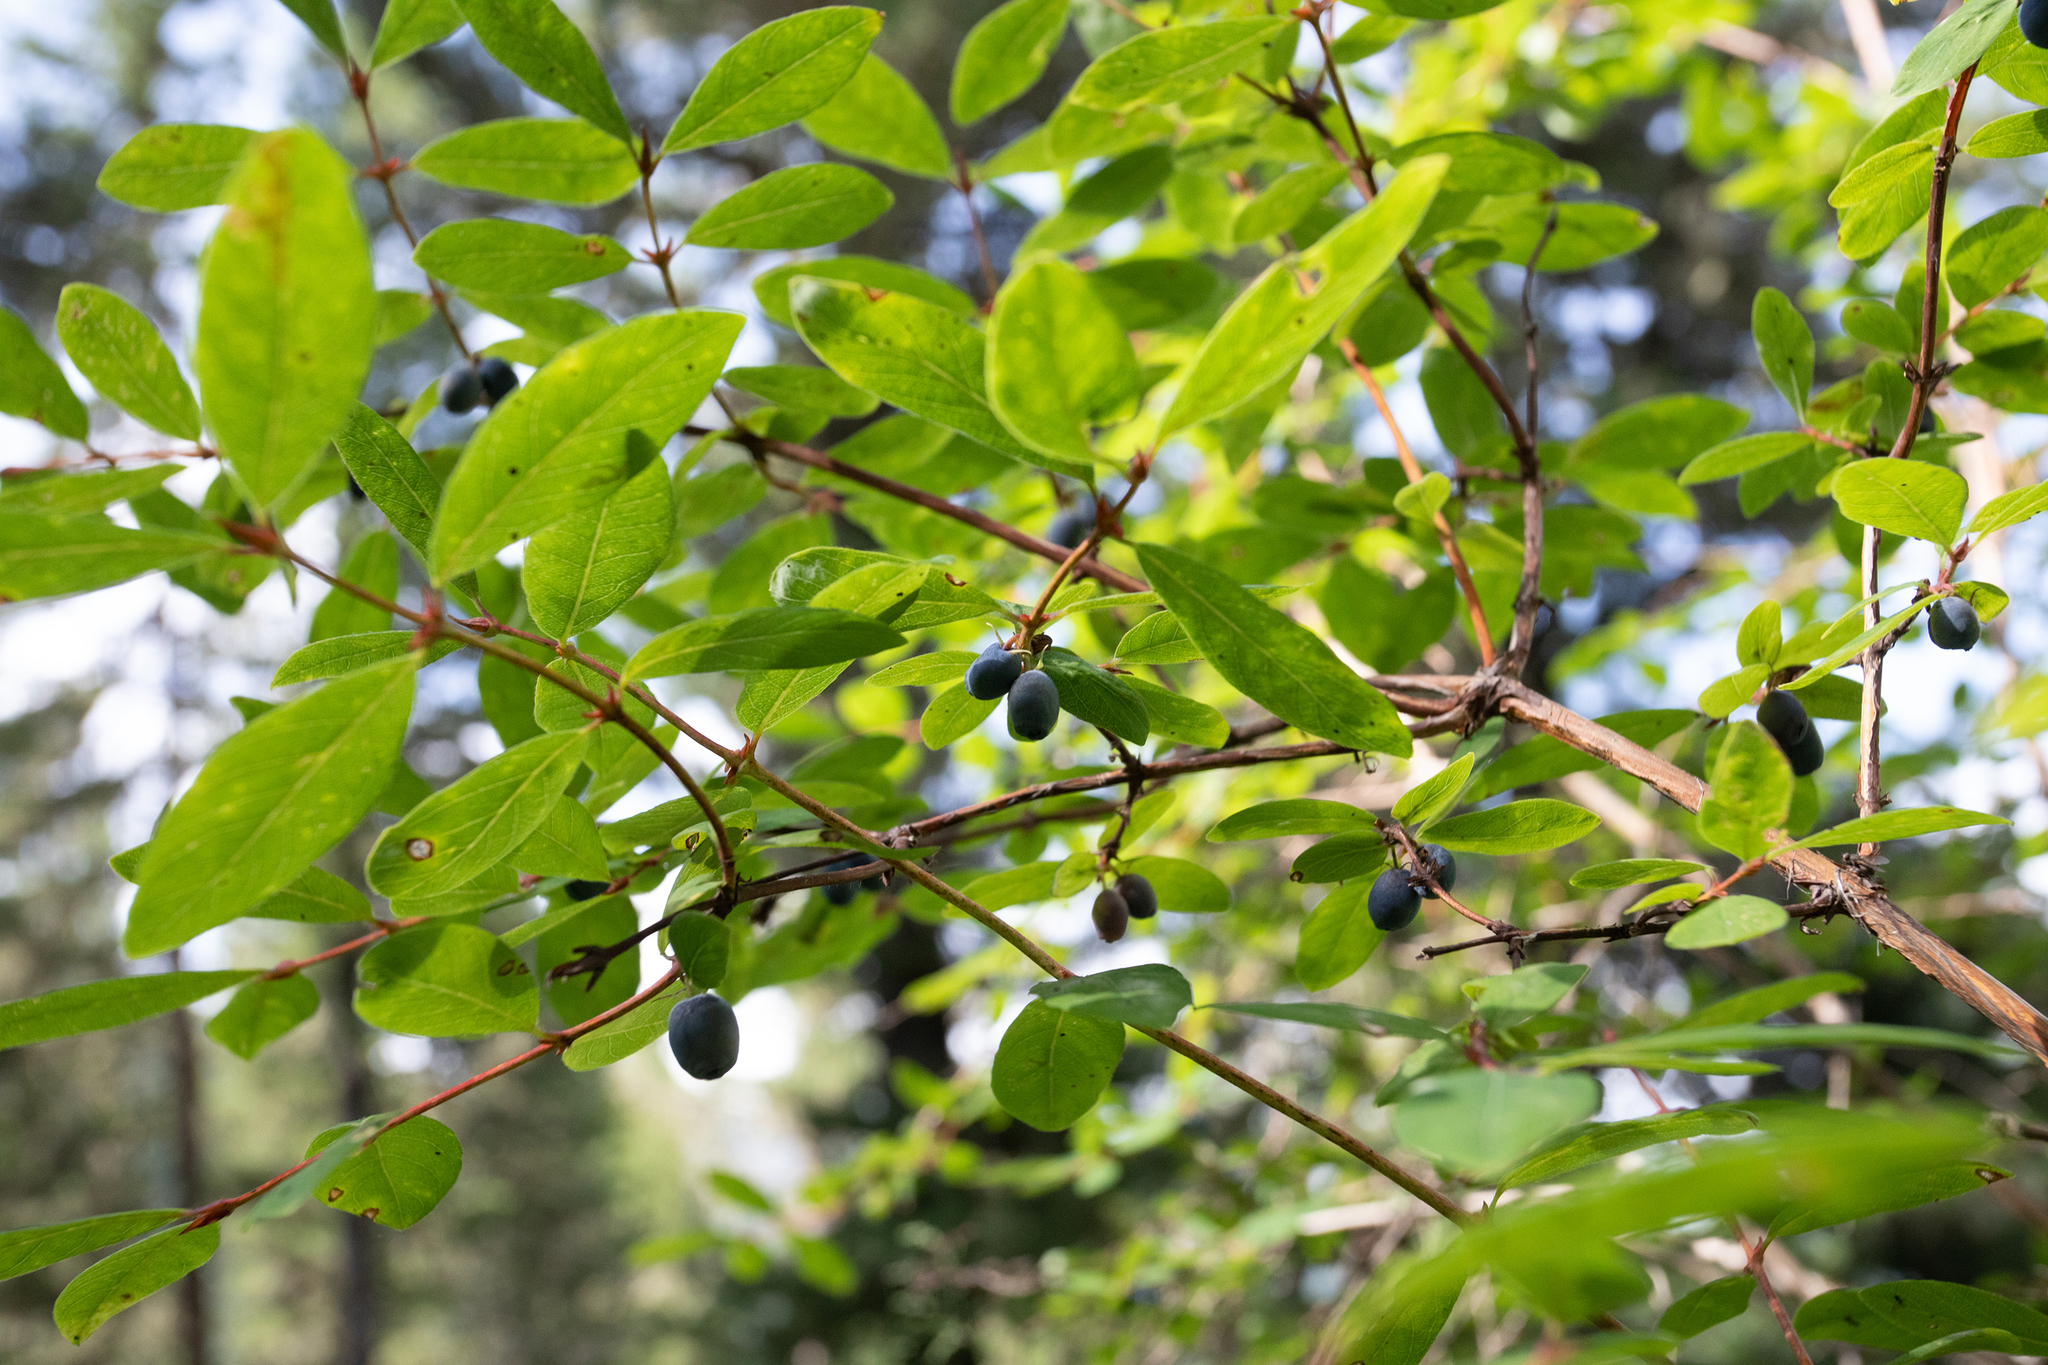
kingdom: Plantae
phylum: Tracheophyta
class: Magnoliopsida
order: Dipsacales
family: Caprifoliaceae
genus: Lonicera
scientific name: Lonicera caerulea
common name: Blue honeysuckle
